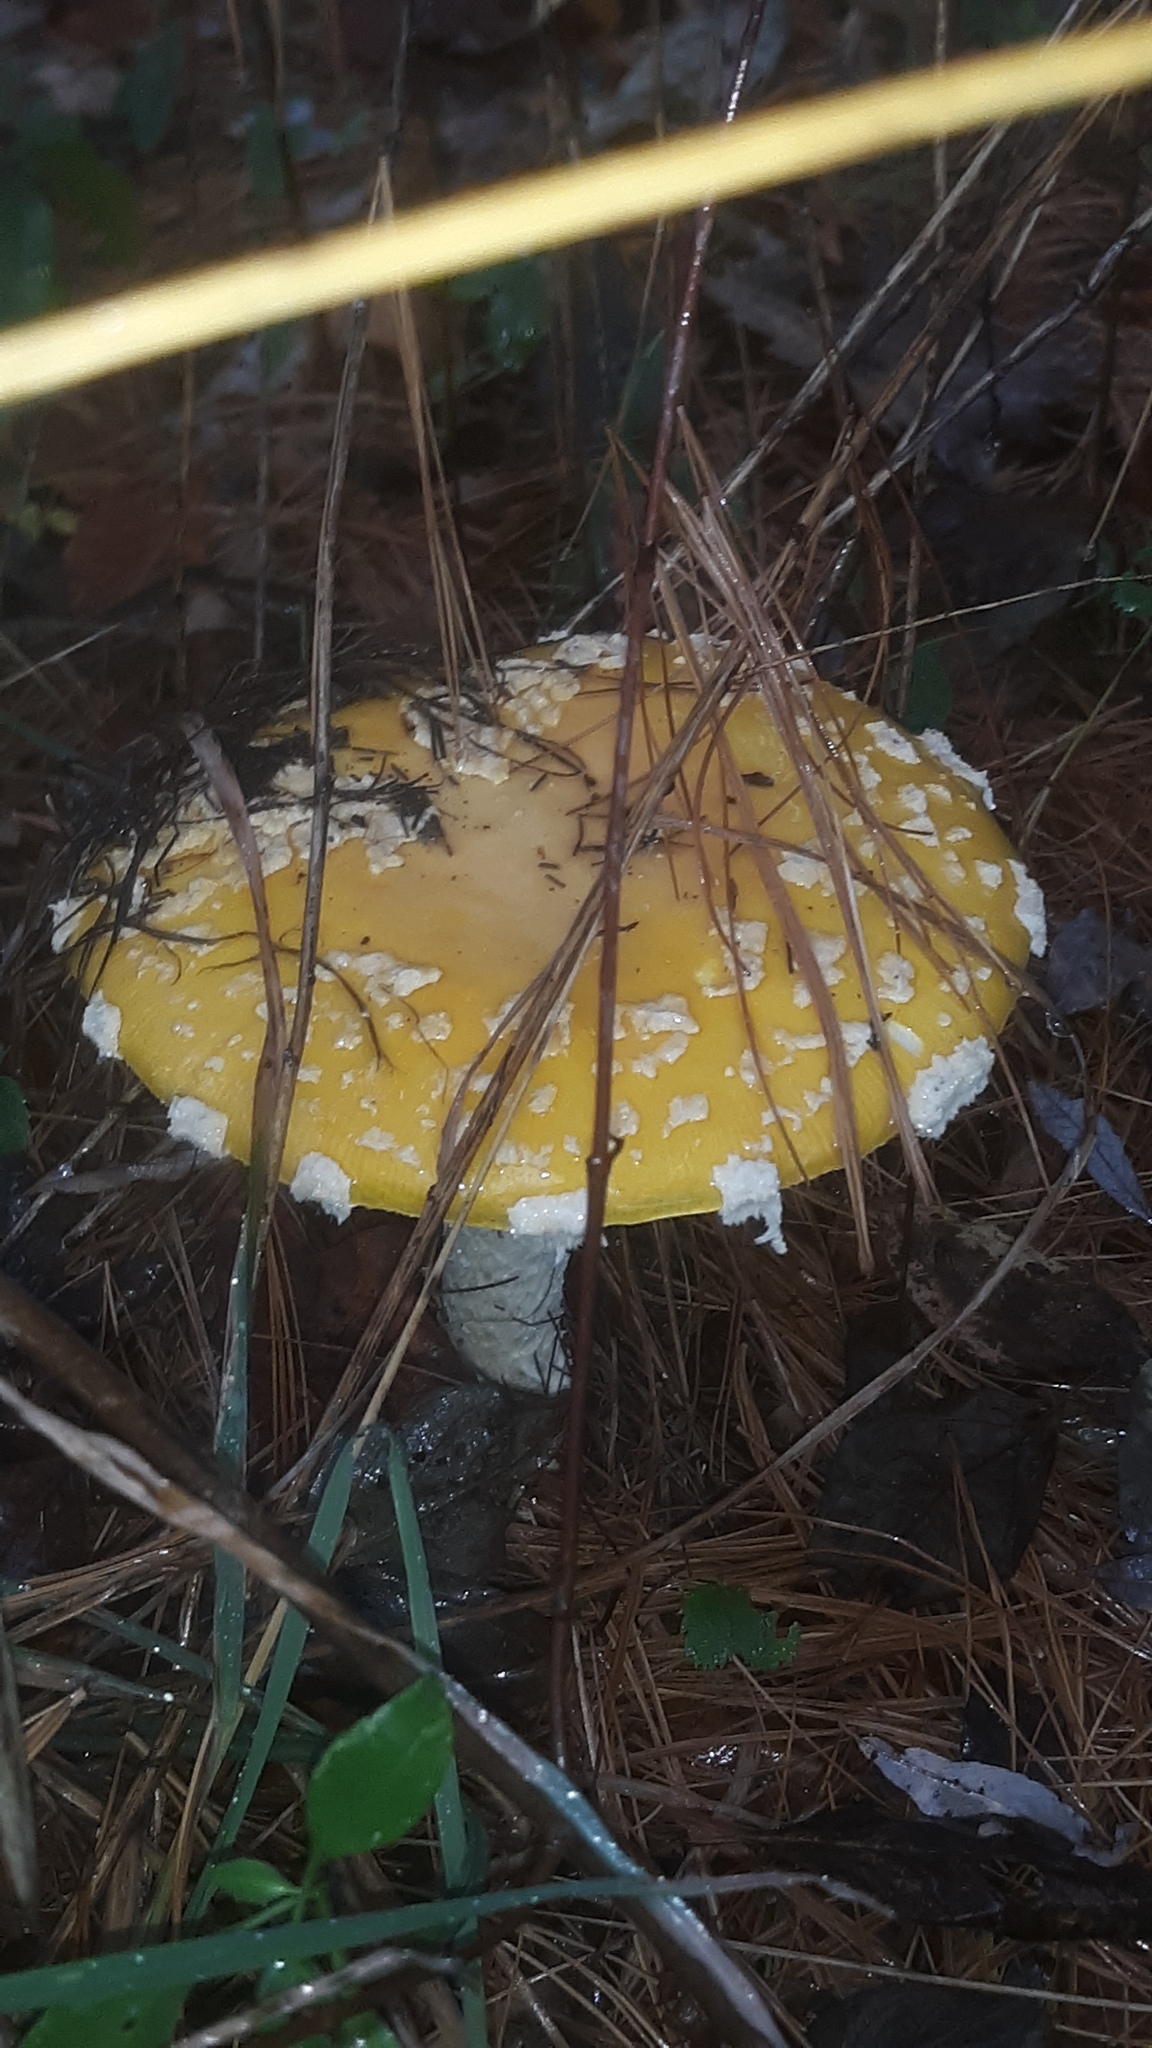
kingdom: Fungi
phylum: Basidiomycota
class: Agaricomycetes
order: Agaricales
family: Amanitaceae
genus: Amanita
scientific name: Amanita muscaria
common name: Fly agaric
